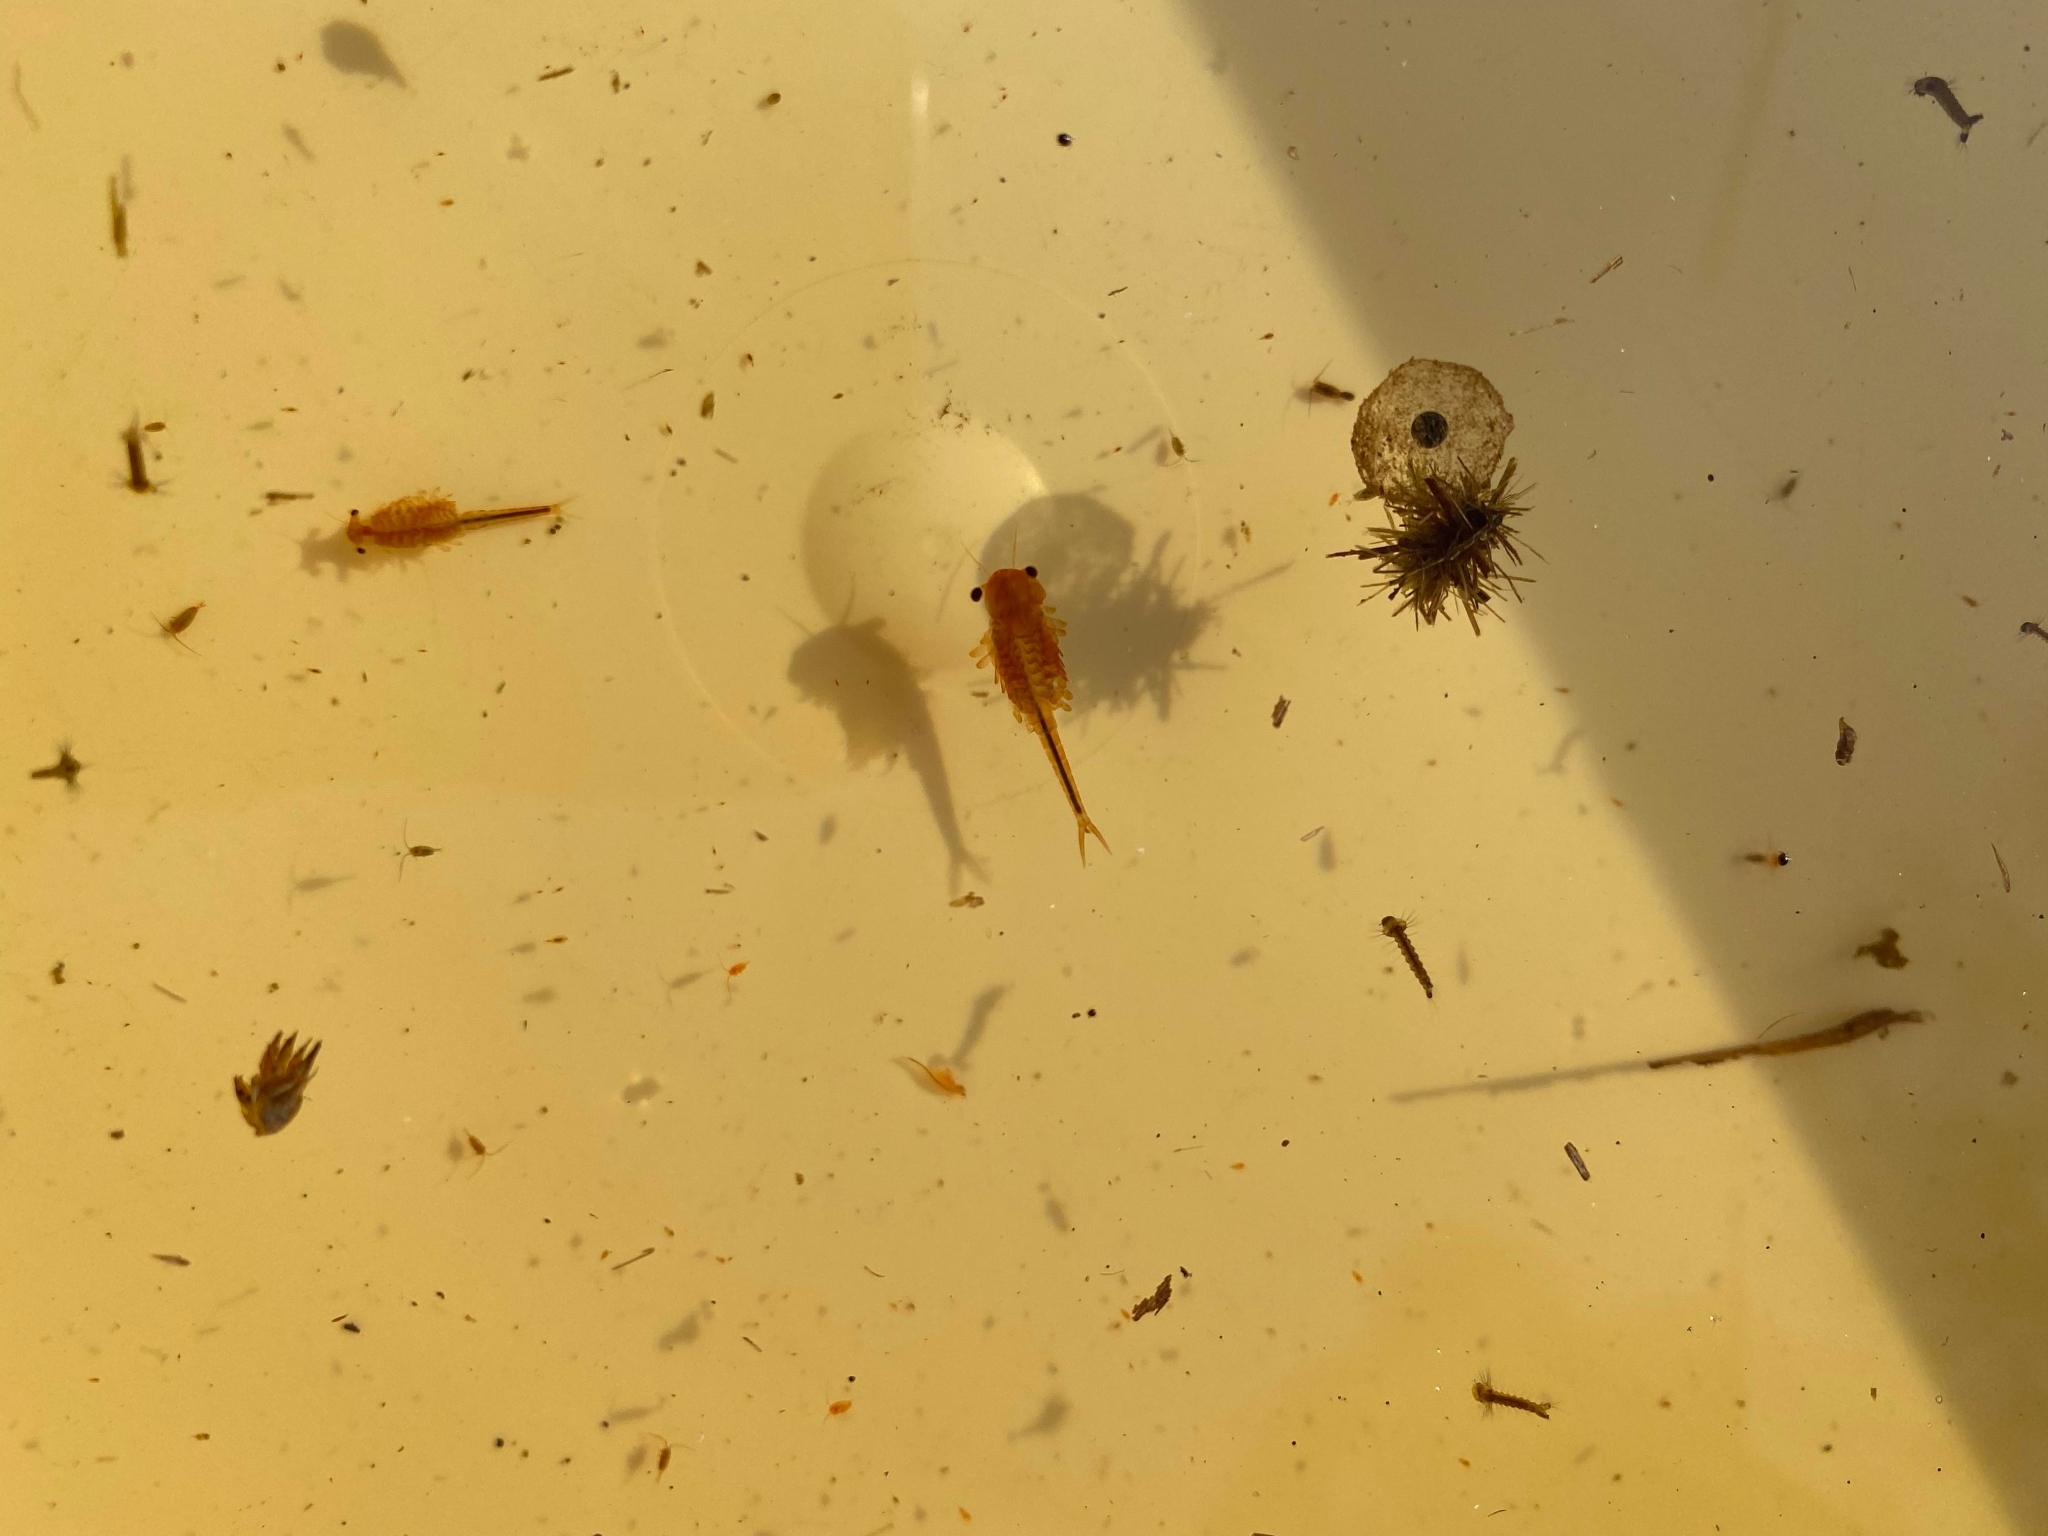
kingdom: Animalia
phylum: Arthropoda
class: Branchiopoda
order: Anostraca
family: Chirocephalidae
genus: Eubranchipus
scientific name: Eubranchipus grubii
